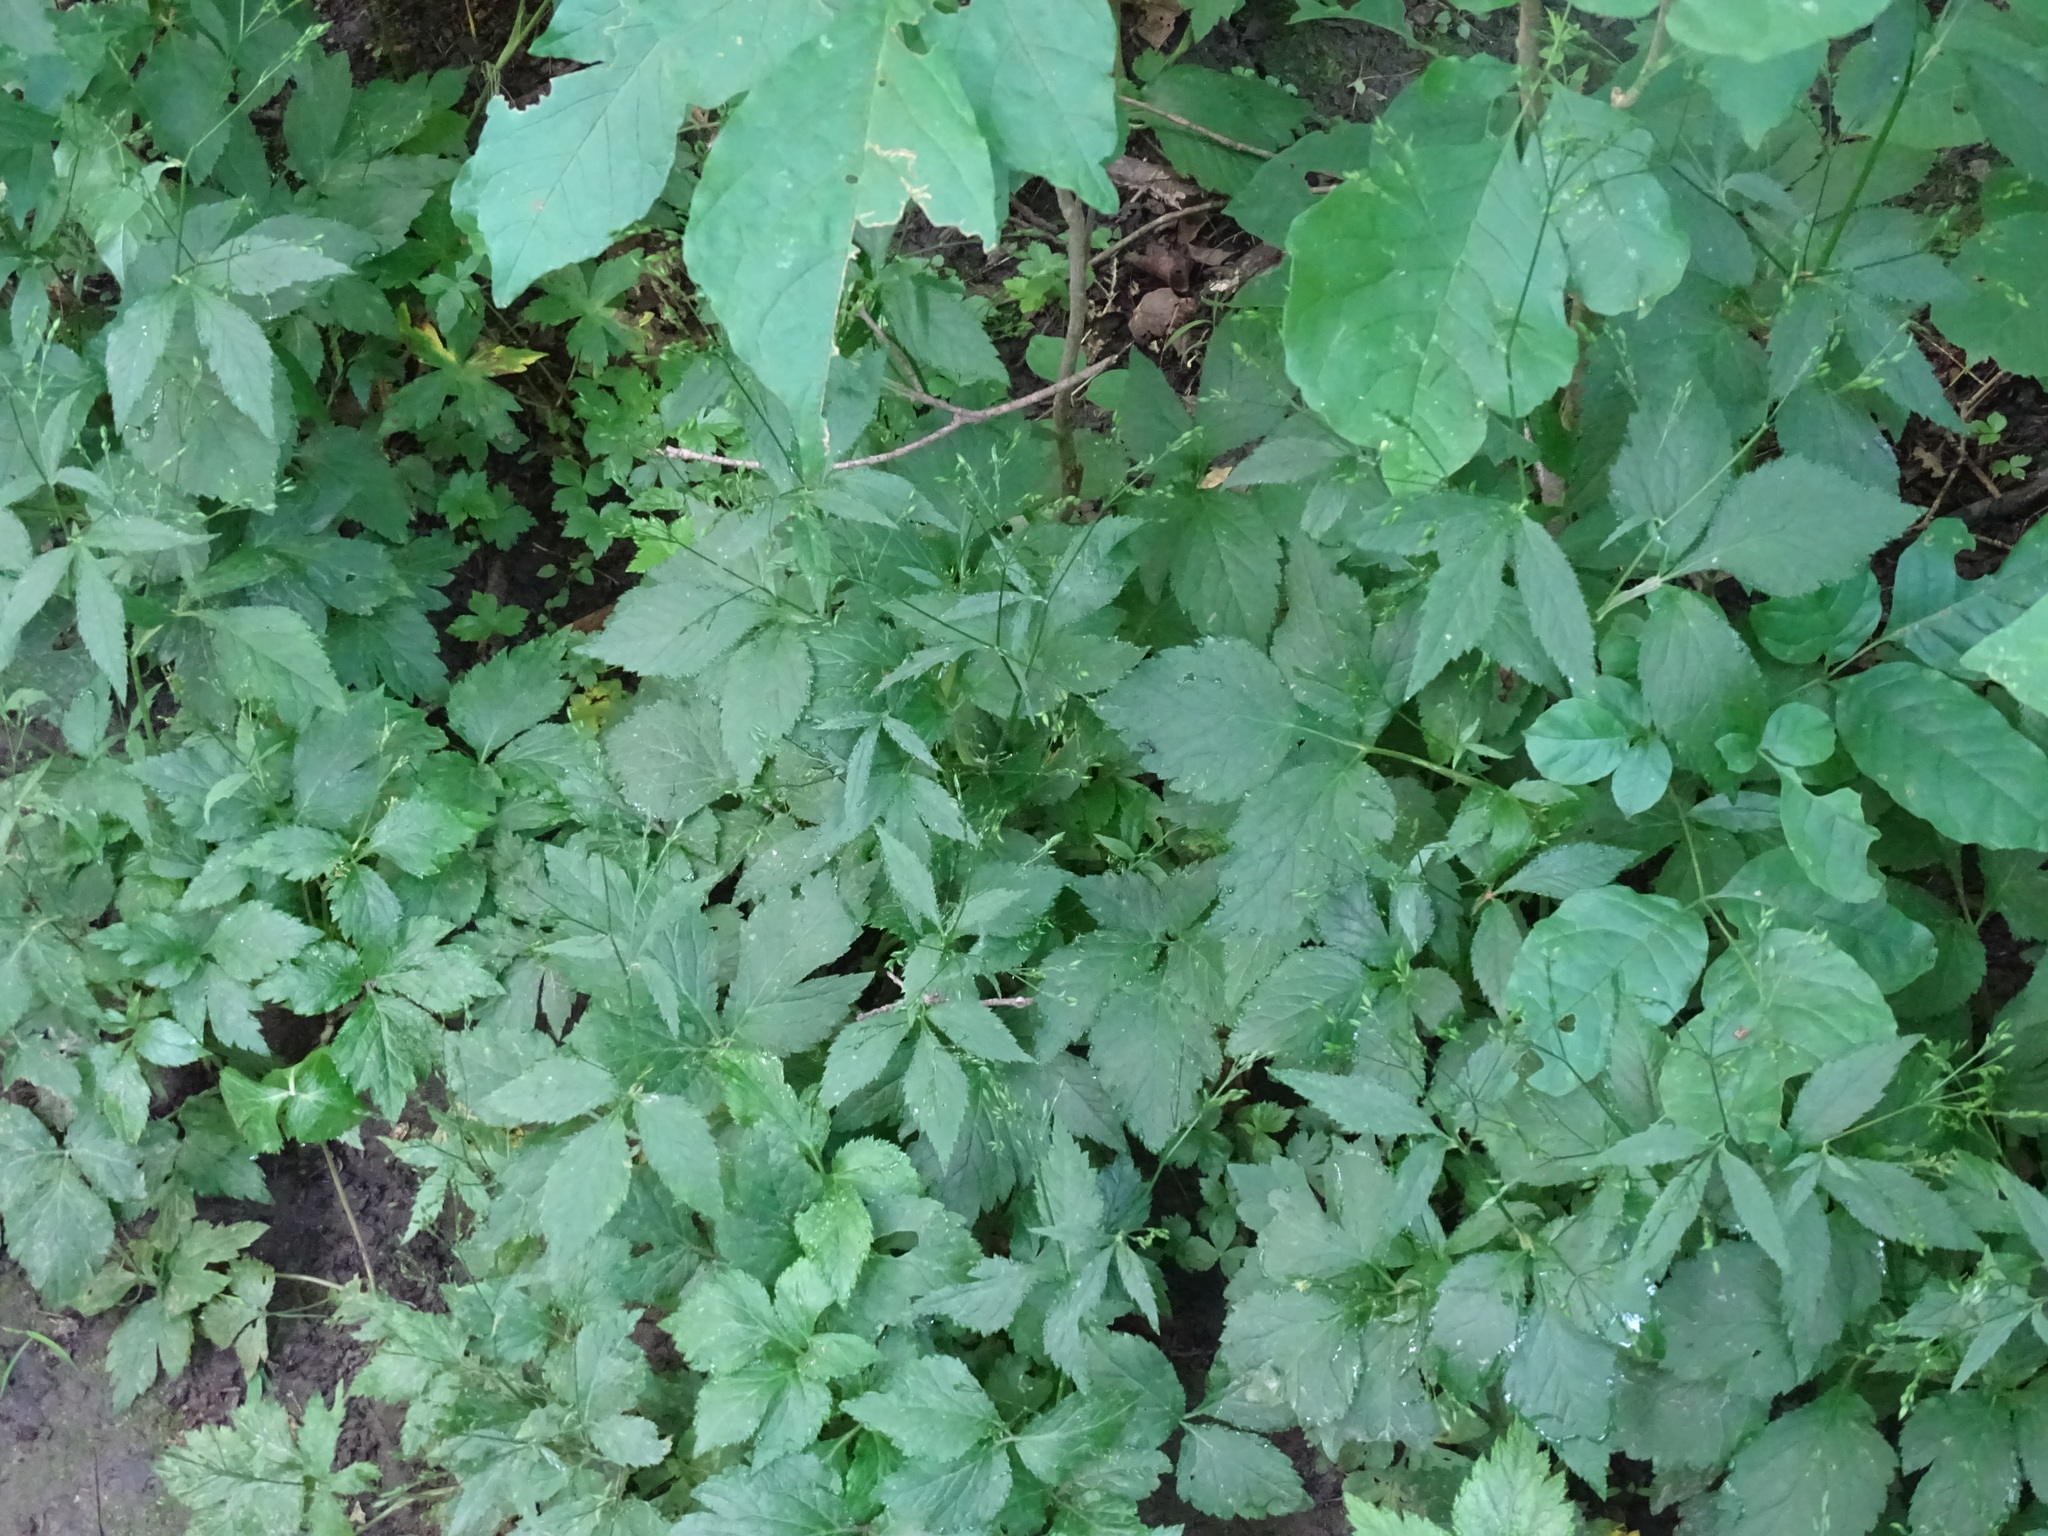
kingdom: Plantae
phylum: Tracheophyta
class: Magnoliopsida
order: Apiales
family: Apiaceae
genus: Cryptotaenia
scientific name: Cryptotaenia canadensis
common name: Honewort
